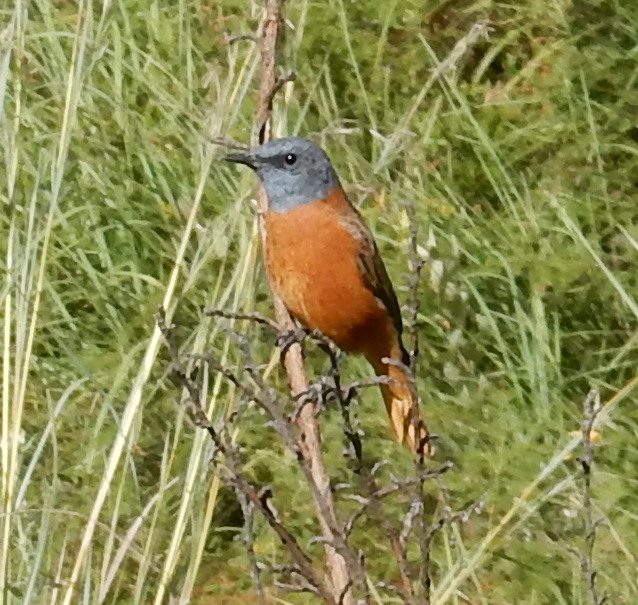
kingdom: Animalia
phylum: Chordata
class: Aves
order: Passeriformes
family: Muscicapidae
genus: Monticola
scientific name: Monticola rupestris
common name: Cape rock thrush
